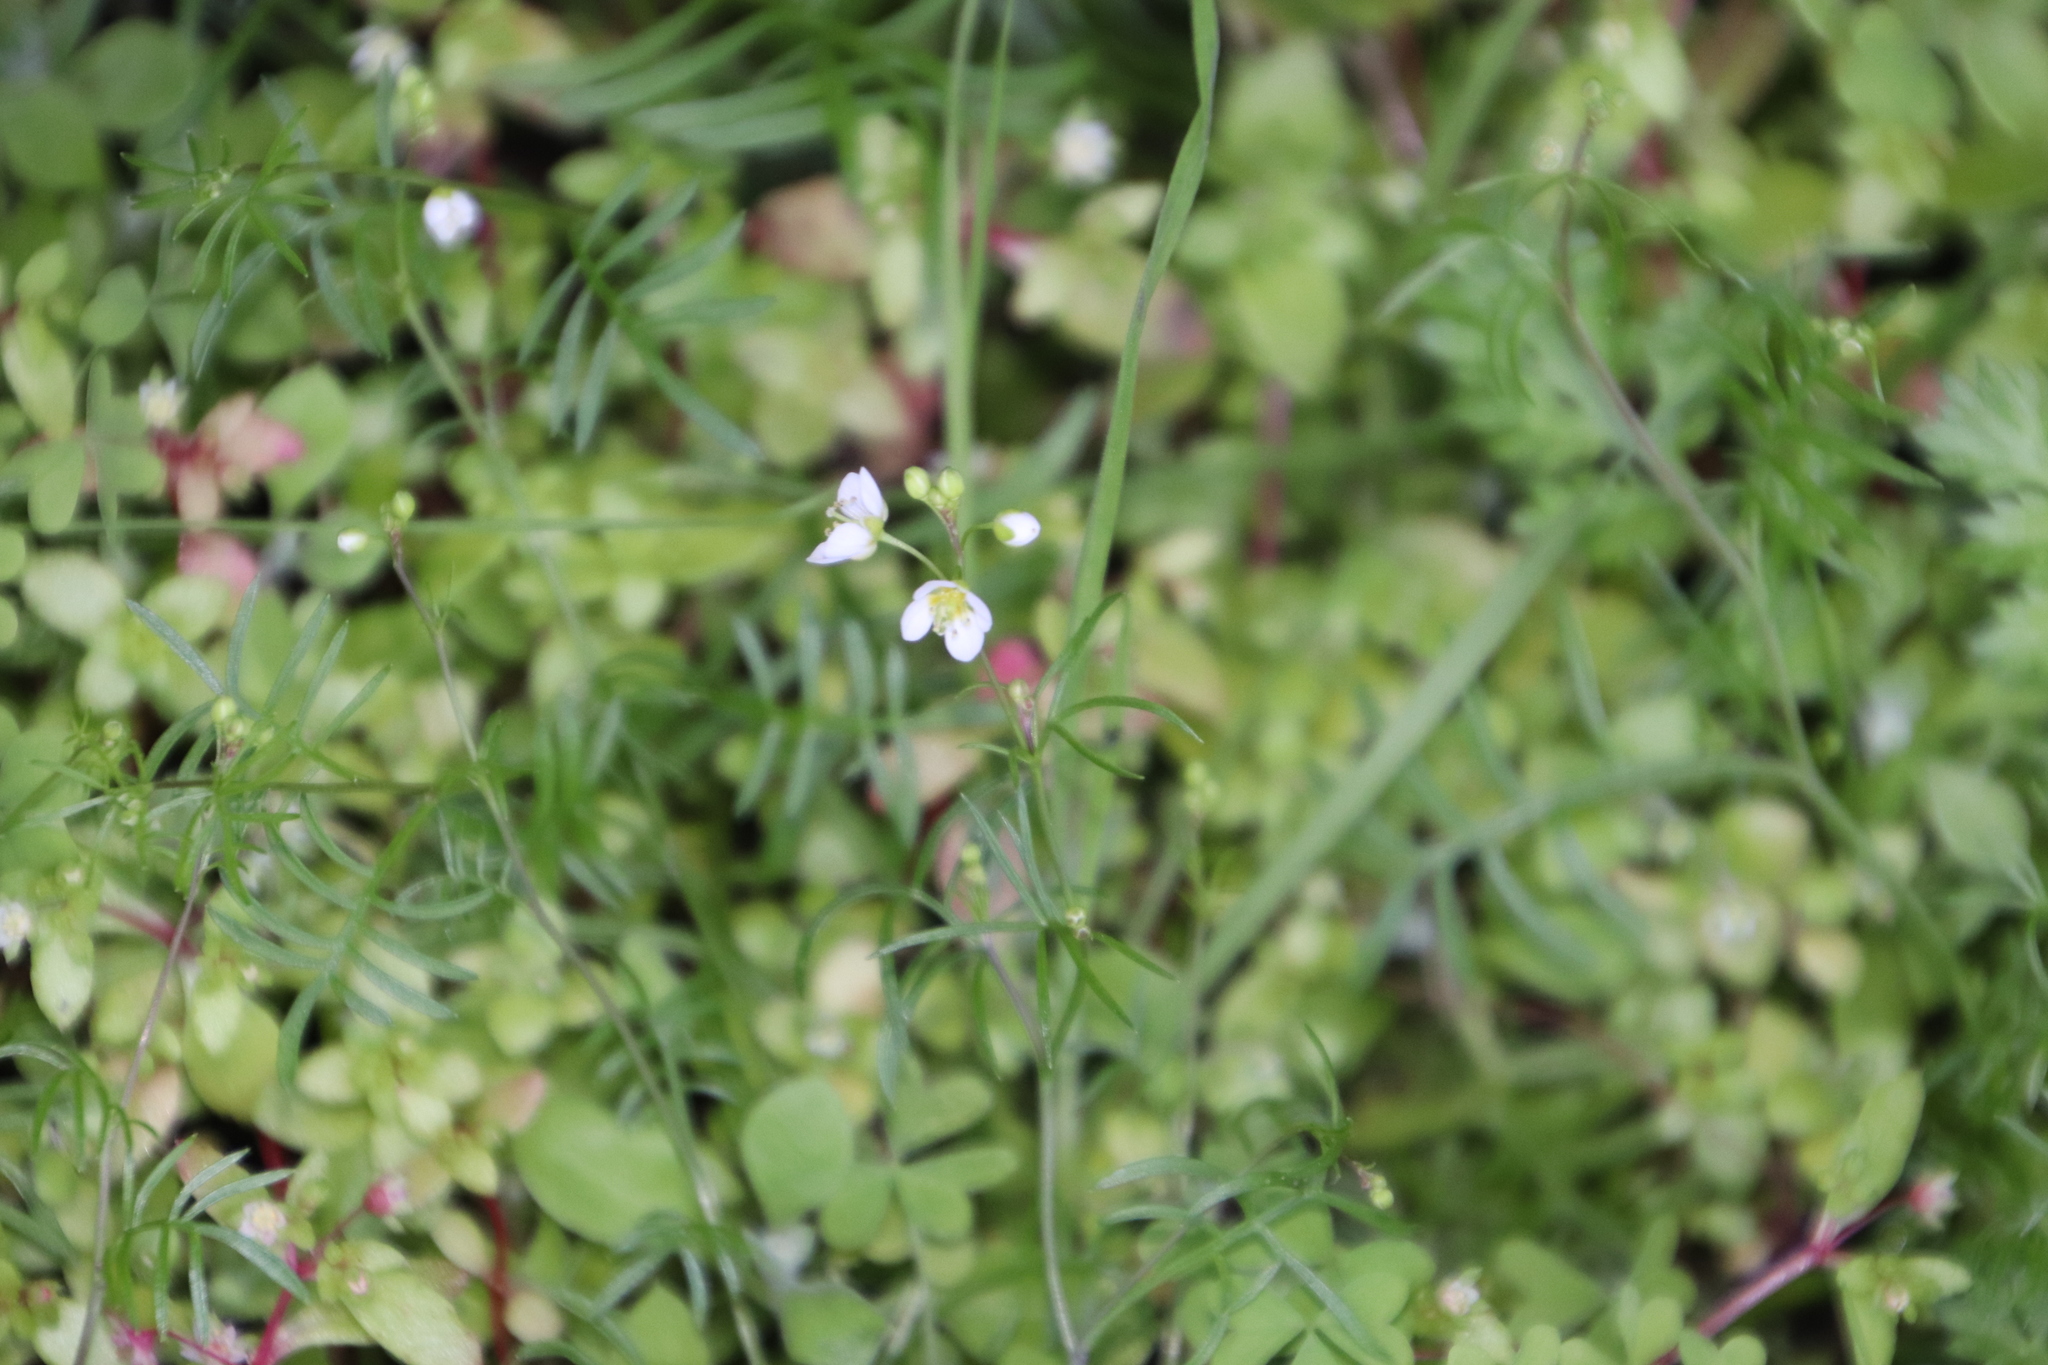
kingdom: Plantae
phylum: Tracheophyta
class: Magnoliopsida
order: Brassicales
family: Brassicaceae
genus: Heliophila
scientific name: Heliophila meyeri
